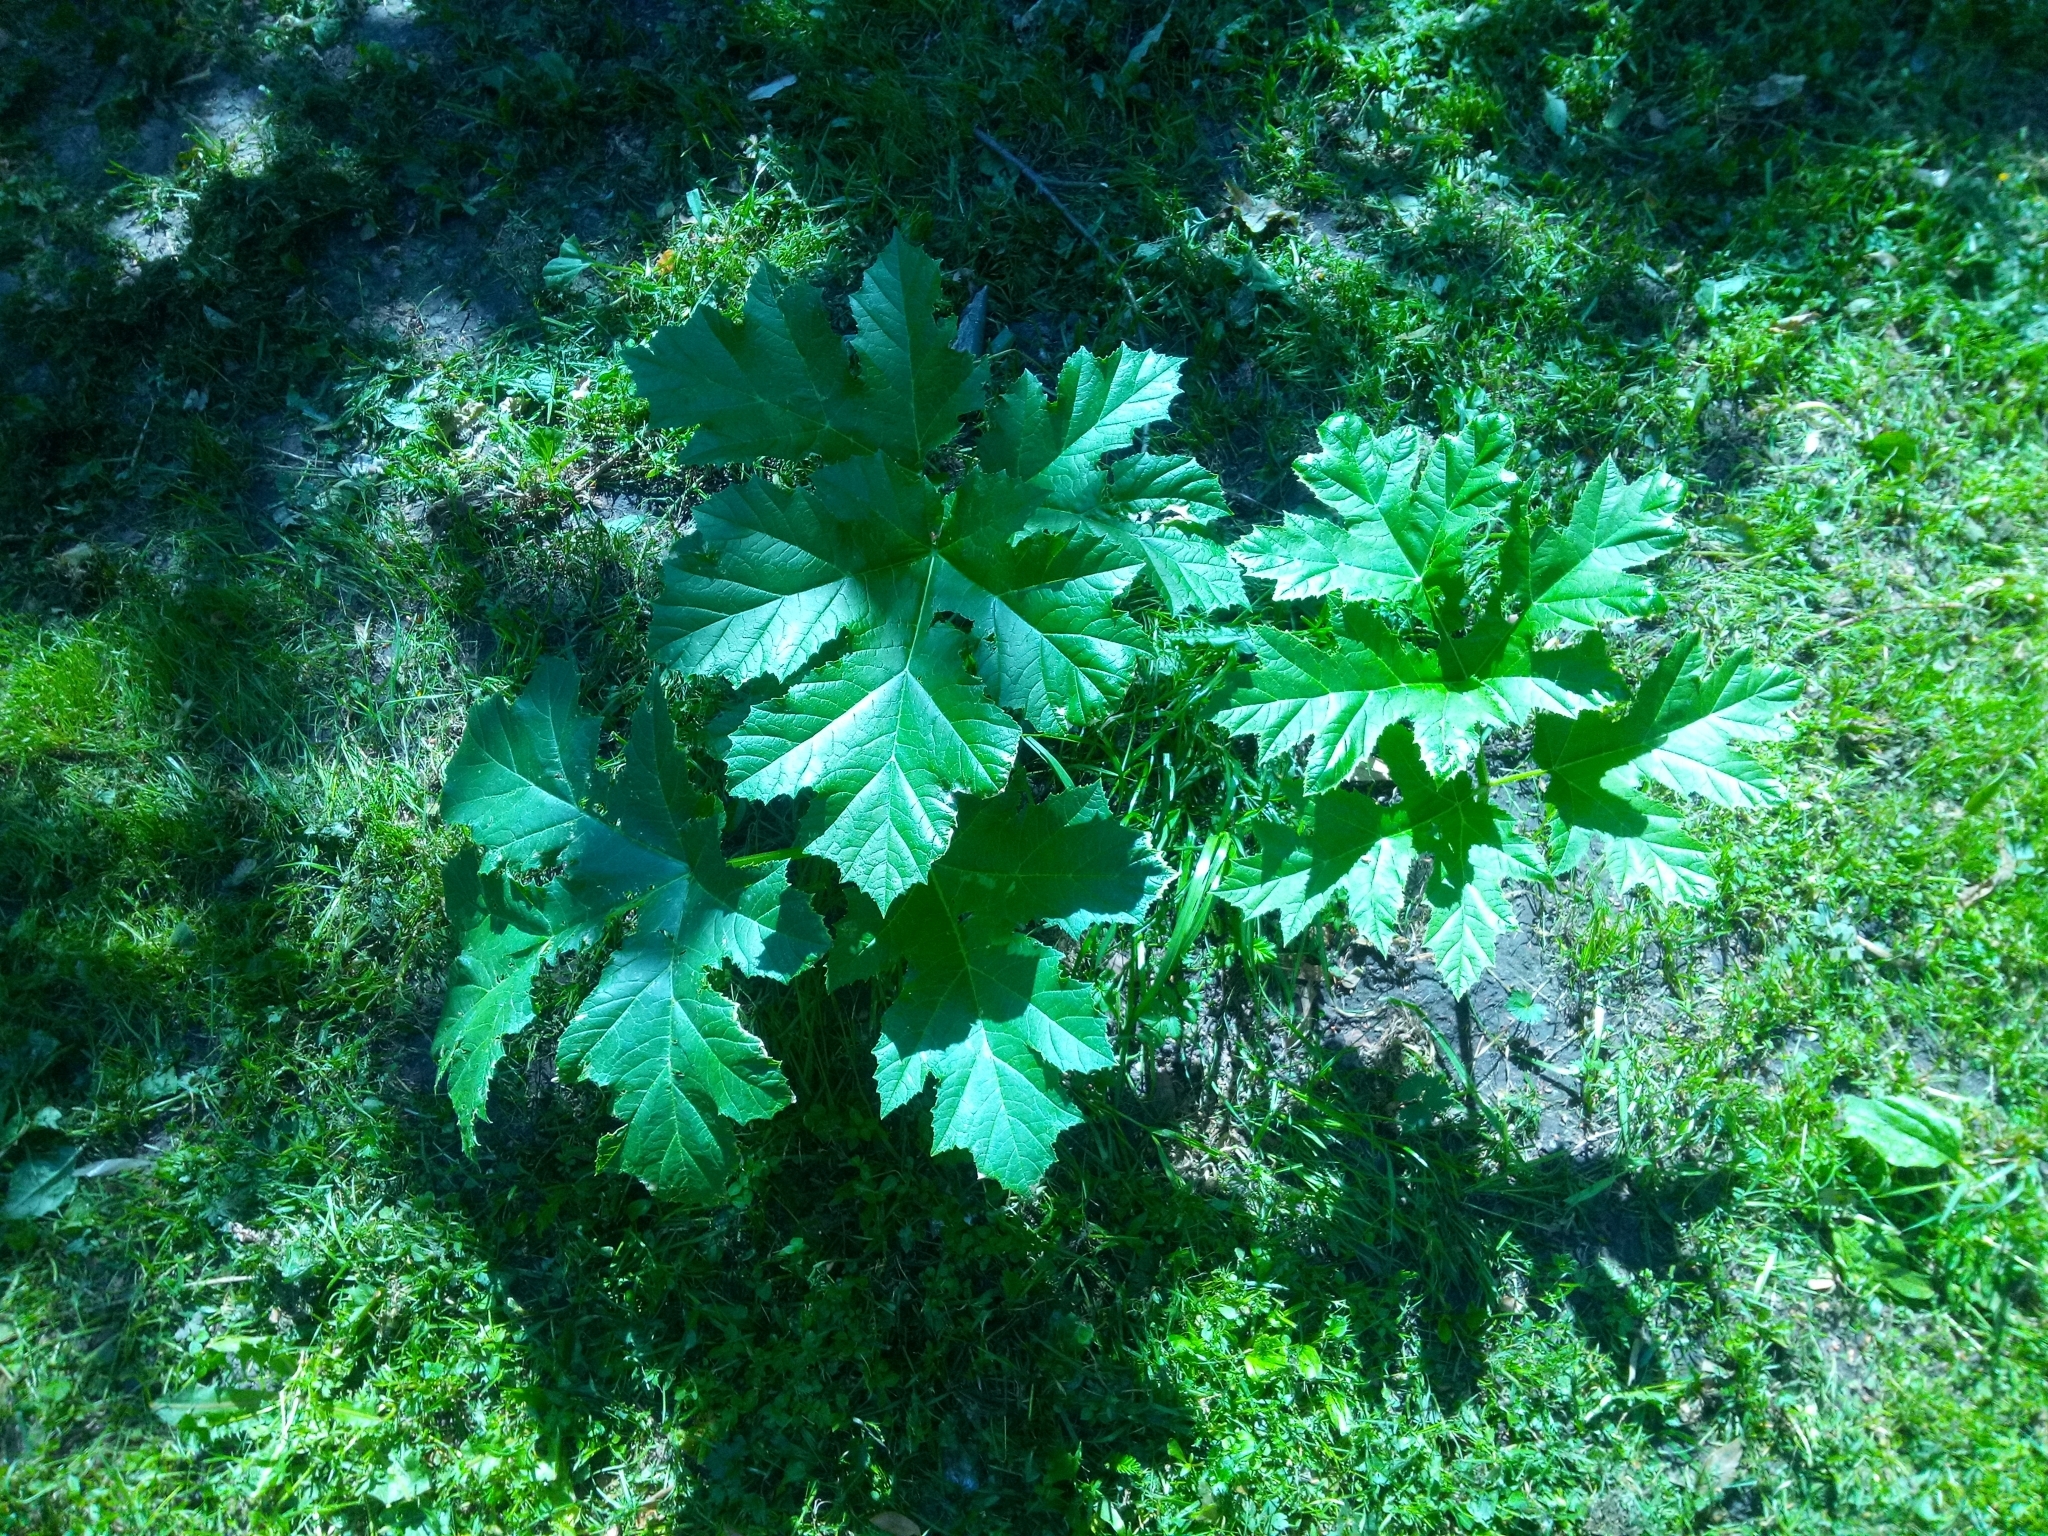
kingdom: Plantae
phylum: Tracheophyta
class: Magnoliopsida
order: Apiales
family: Apiaceae
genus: Heracleum
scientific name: Heracleum sosnowskyi
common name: Sosnowsky's hogweed
